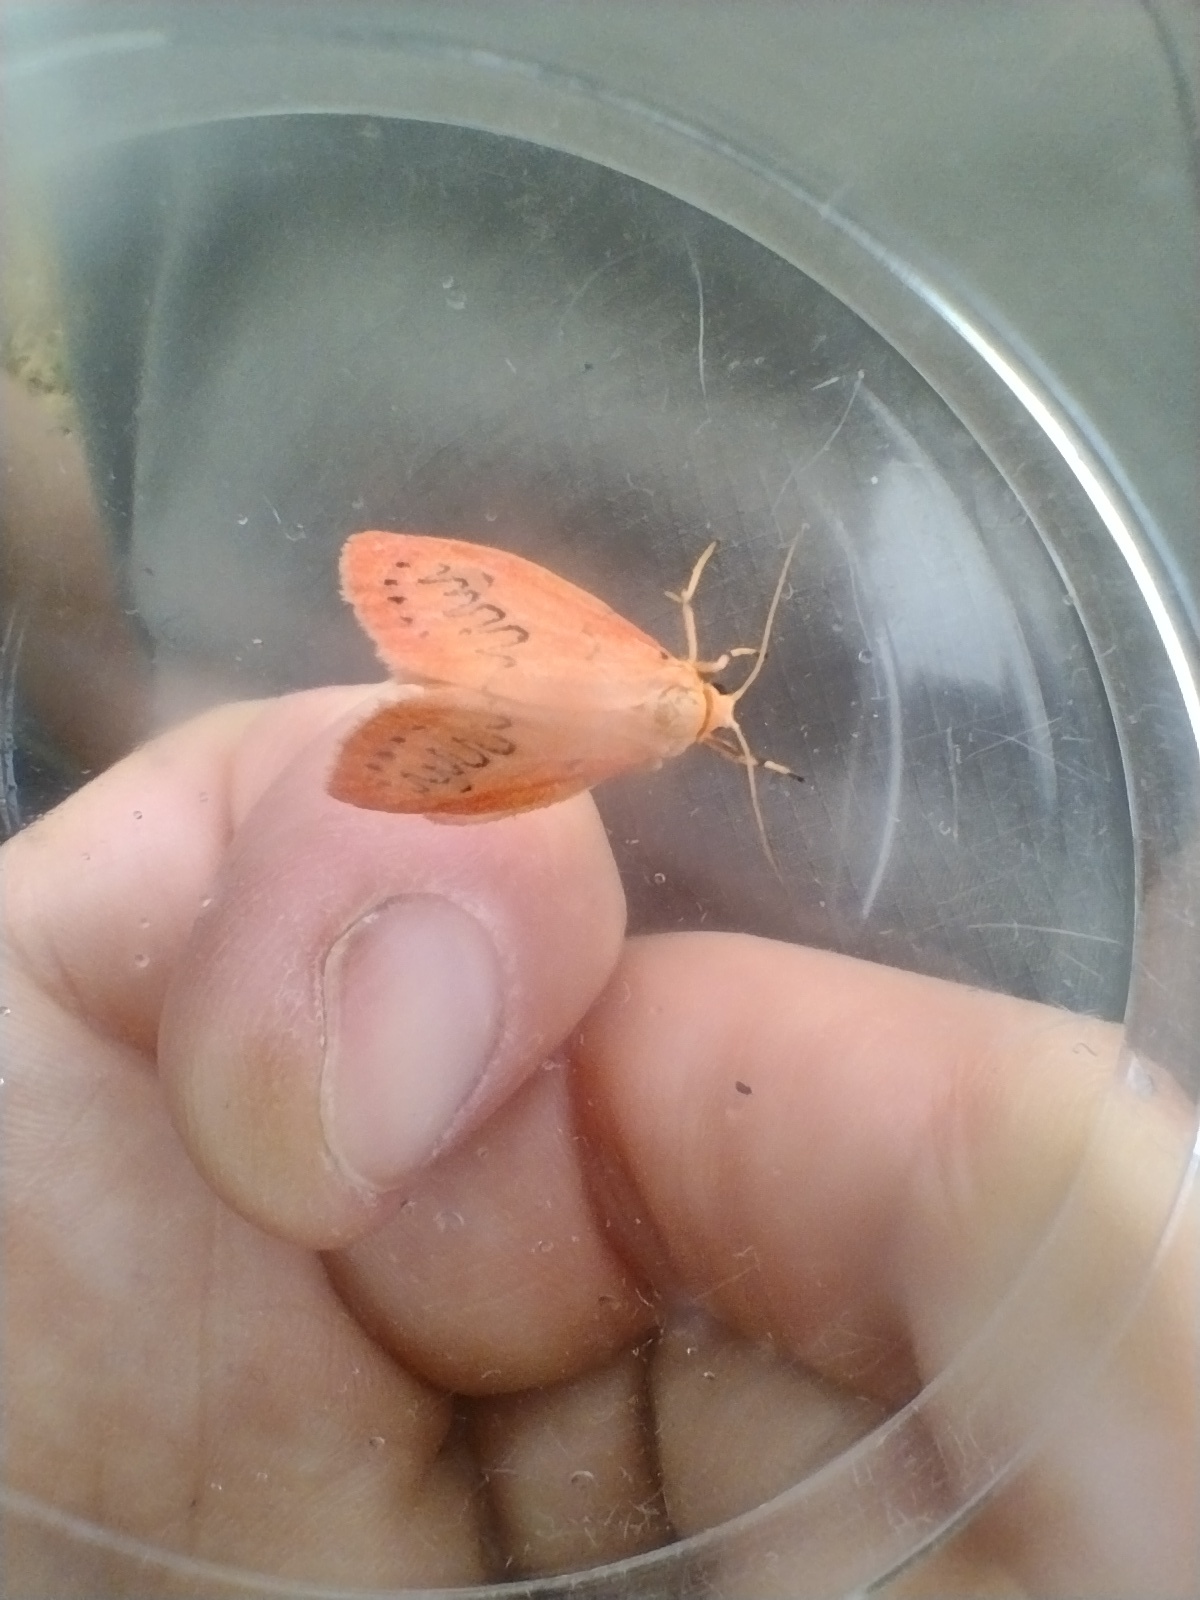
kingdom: Animalia
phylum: Arthropoda
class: Insecta
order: Lepidoptera
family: Erebidae
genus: Miltochrista
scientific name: Miltochrista miniata
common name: Rosy footman
